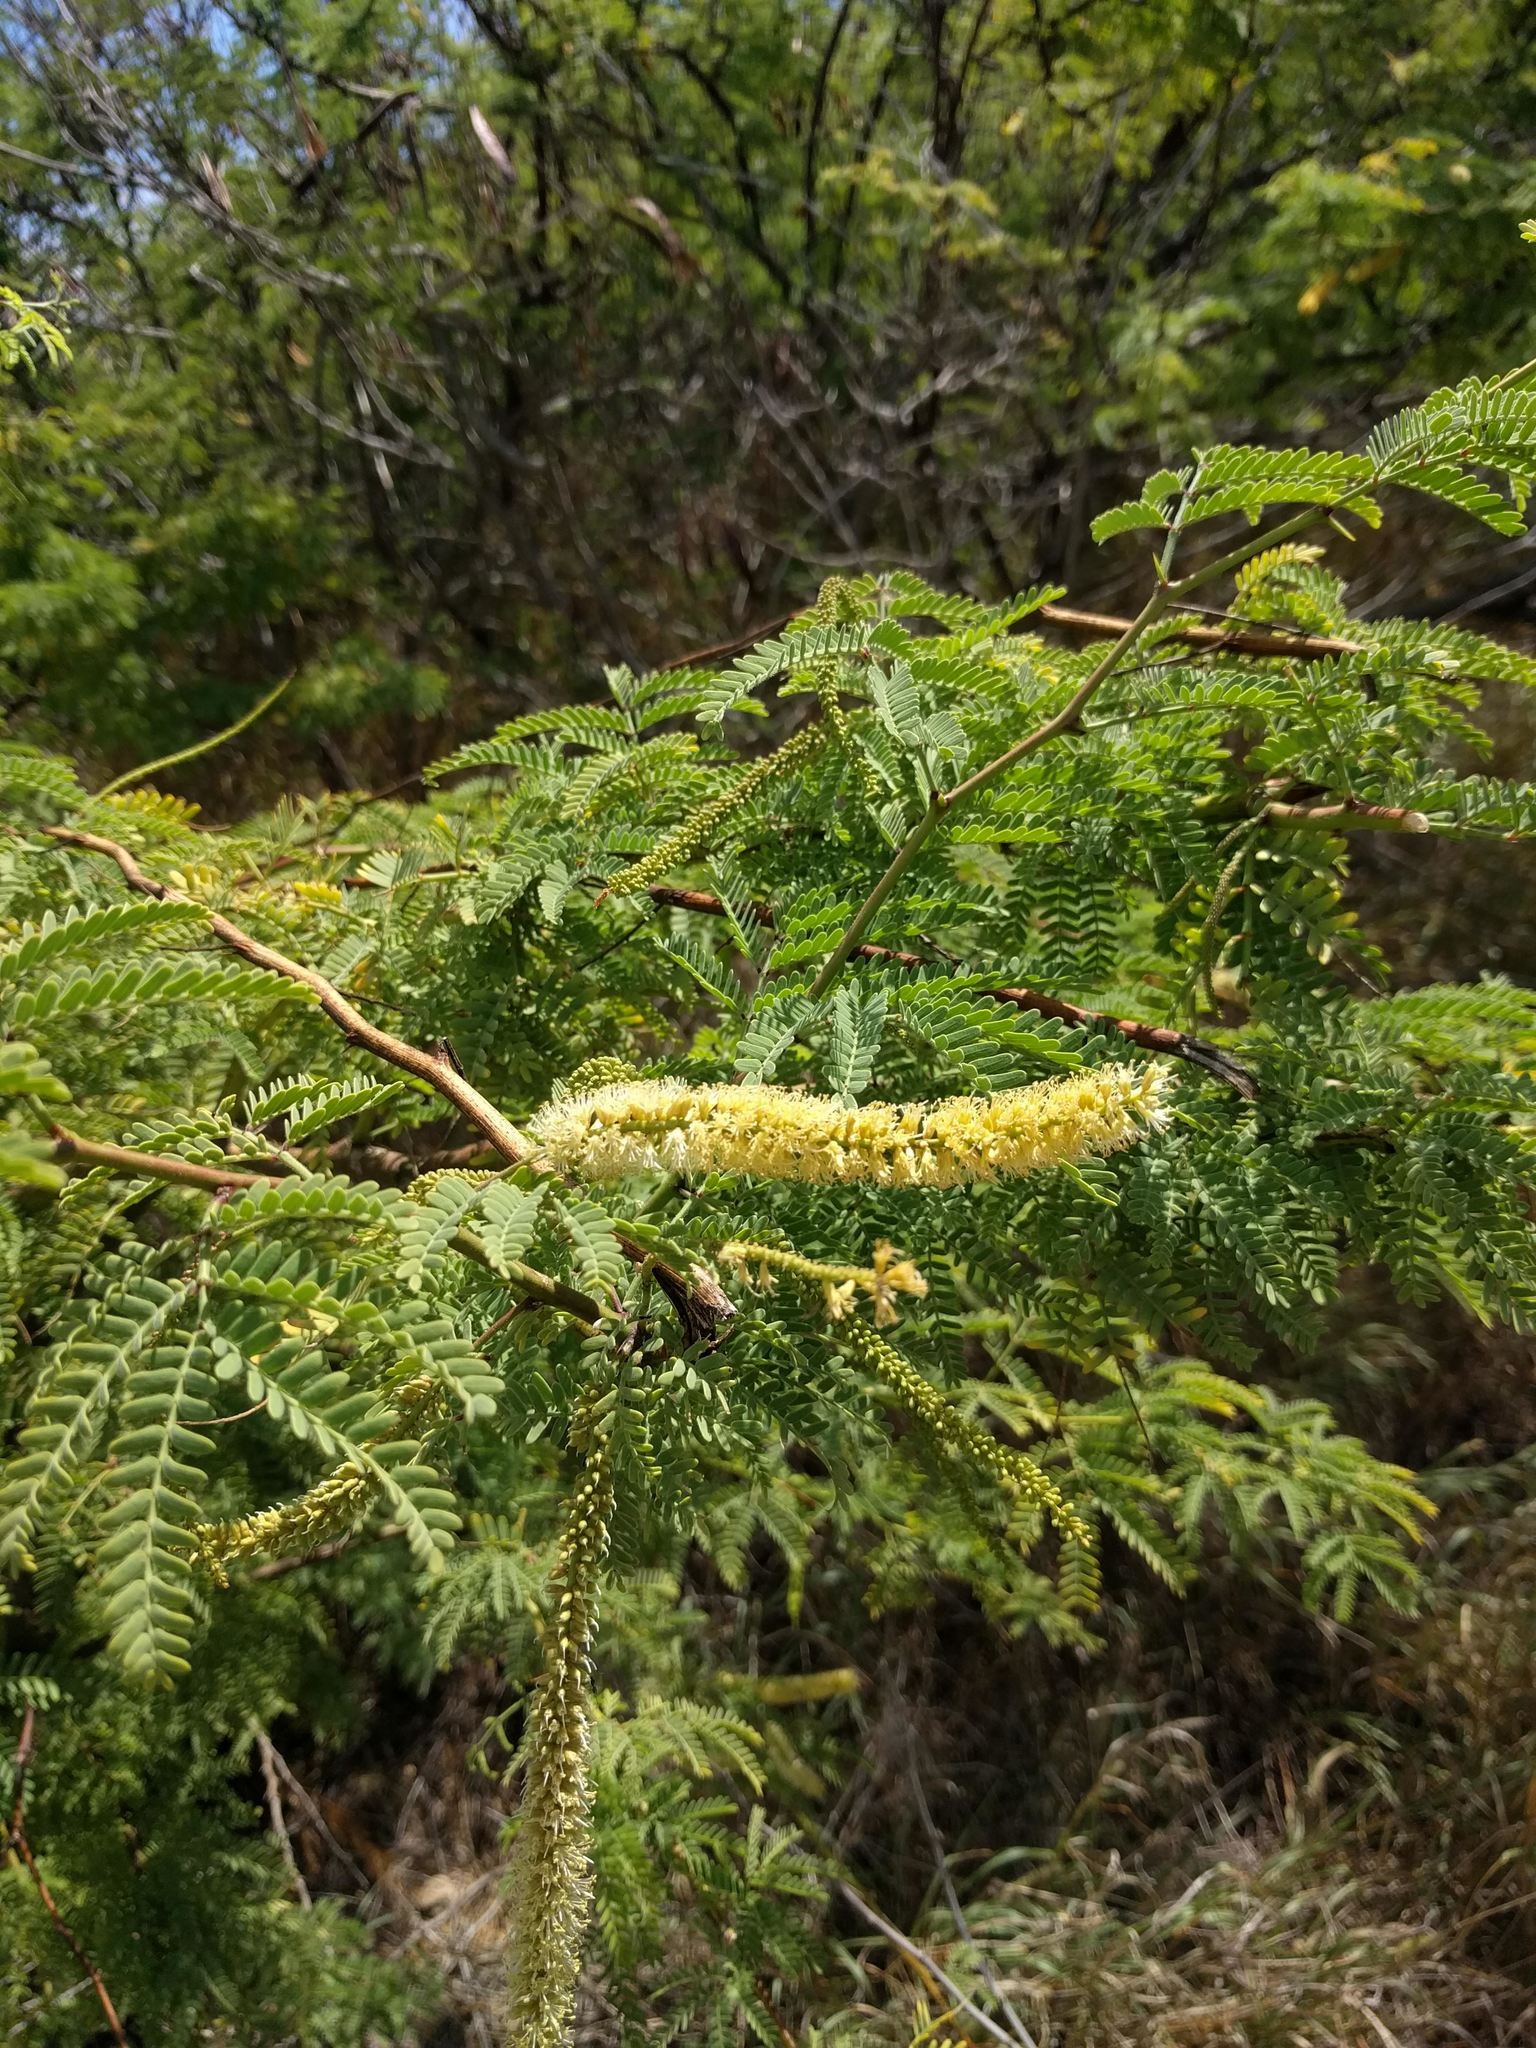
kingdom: Plantae
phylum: Tracheophyta
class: Magnoliopsida
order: Fabales
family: Fabaceae
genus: Prosopis
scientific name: Prosopis pallida
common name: Mesquite
